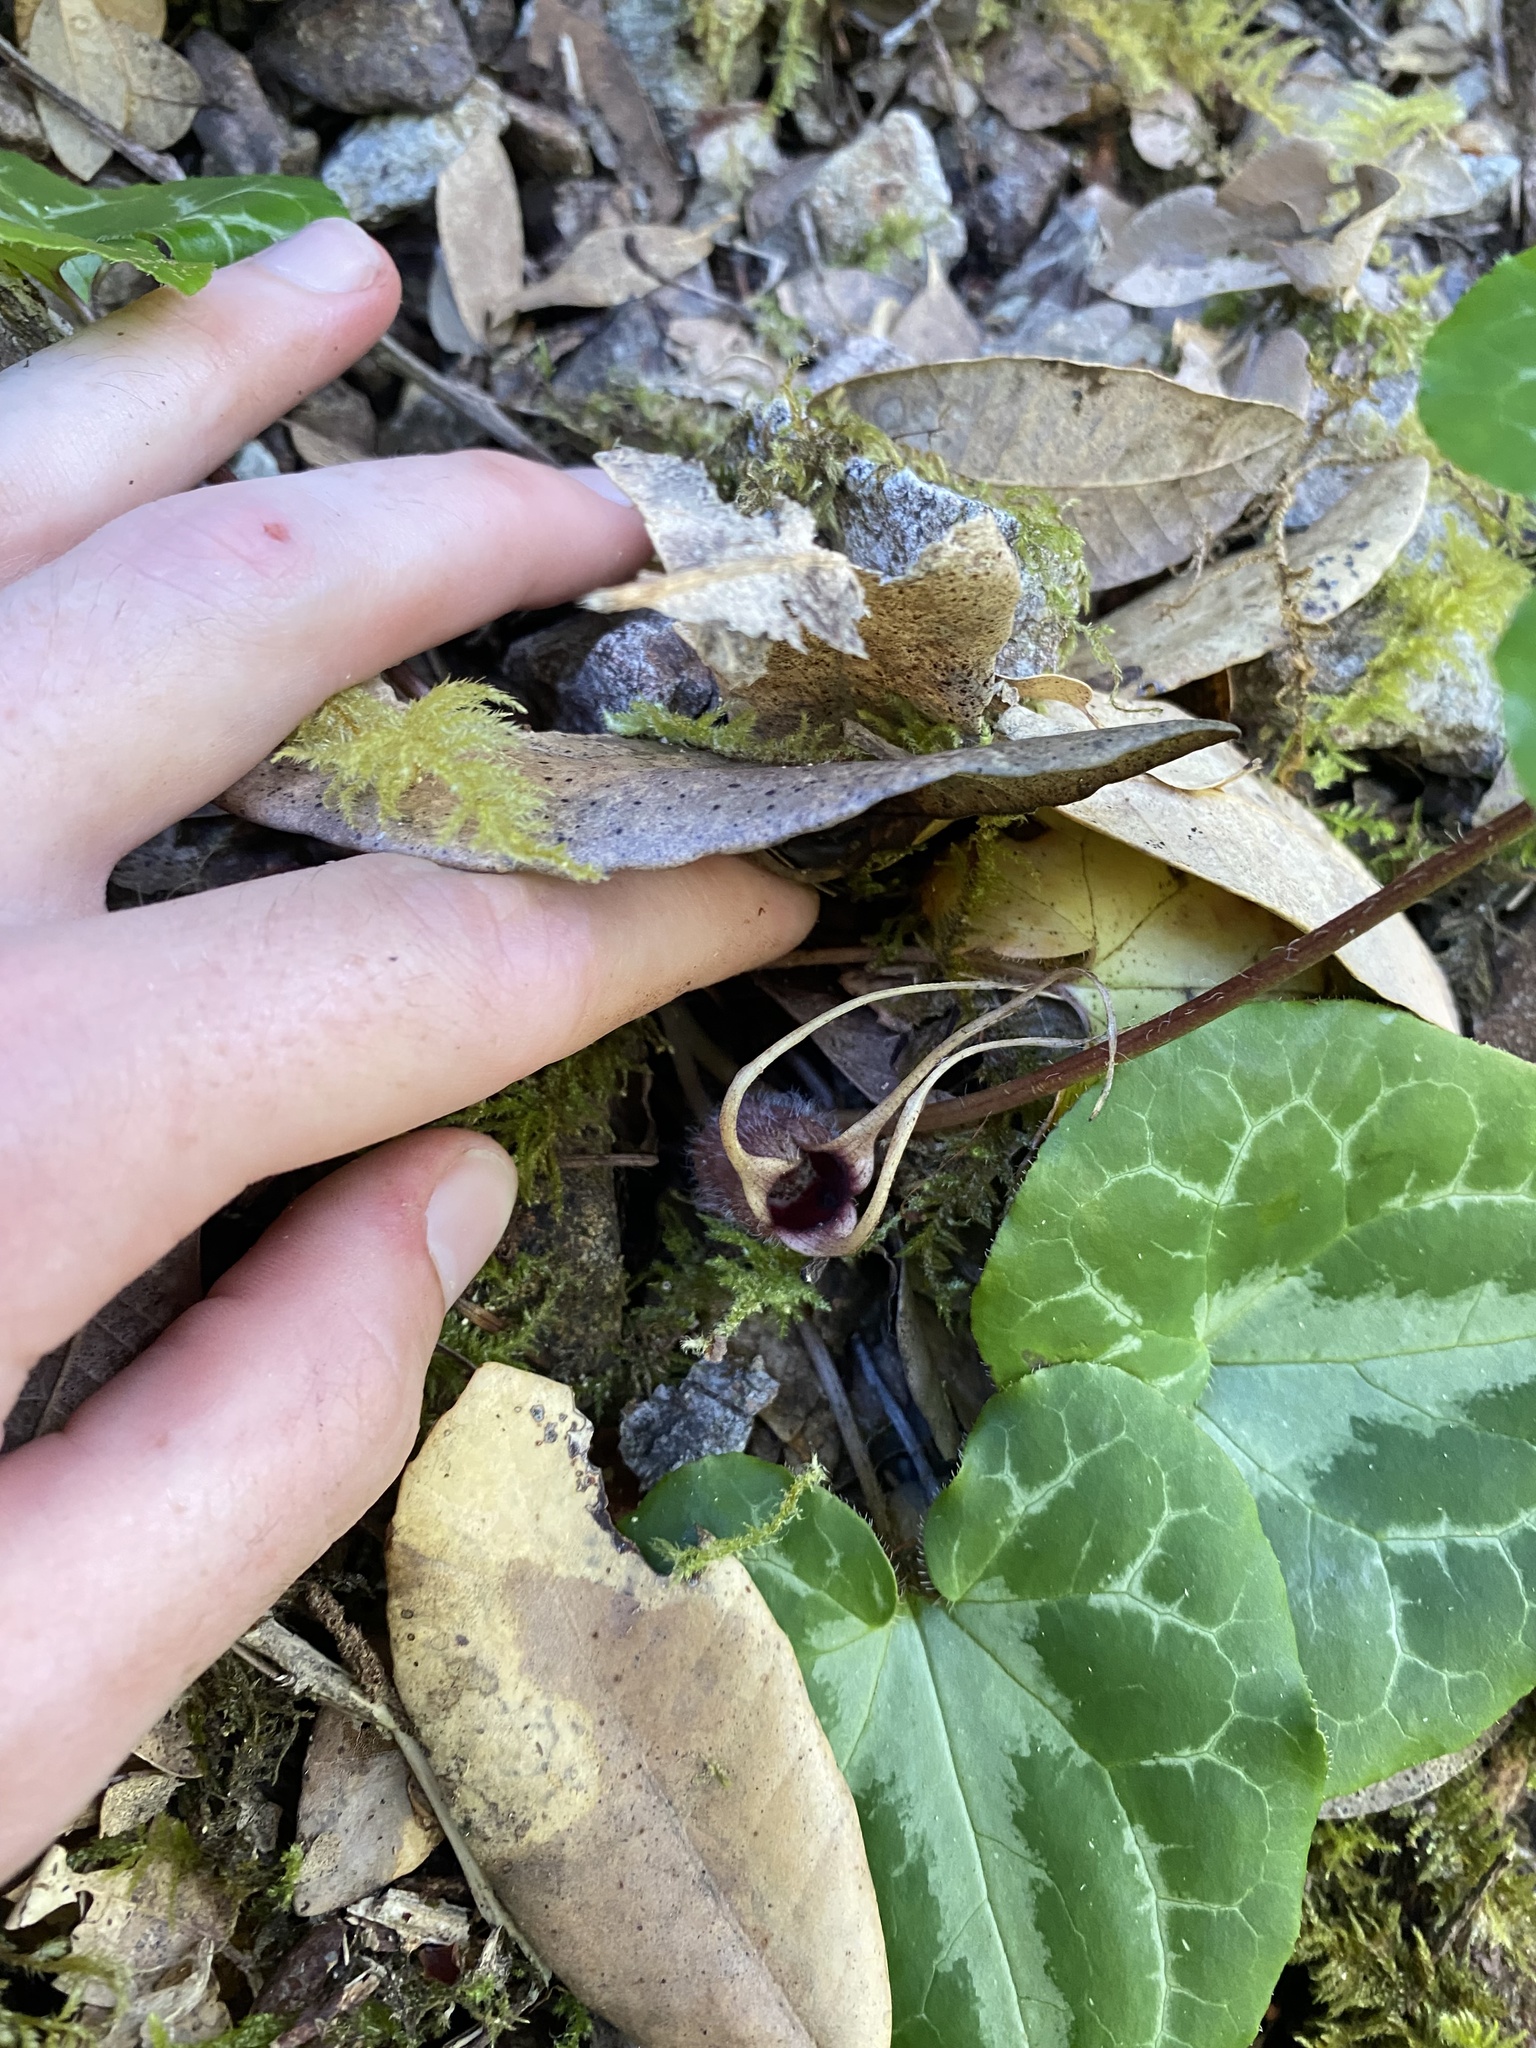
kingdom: Plantae
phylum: Tracheophyta
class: Magnoliopsida
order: Piperales
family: Aristolochiaceae
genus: Asarum
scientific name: Asarum marmoratum
